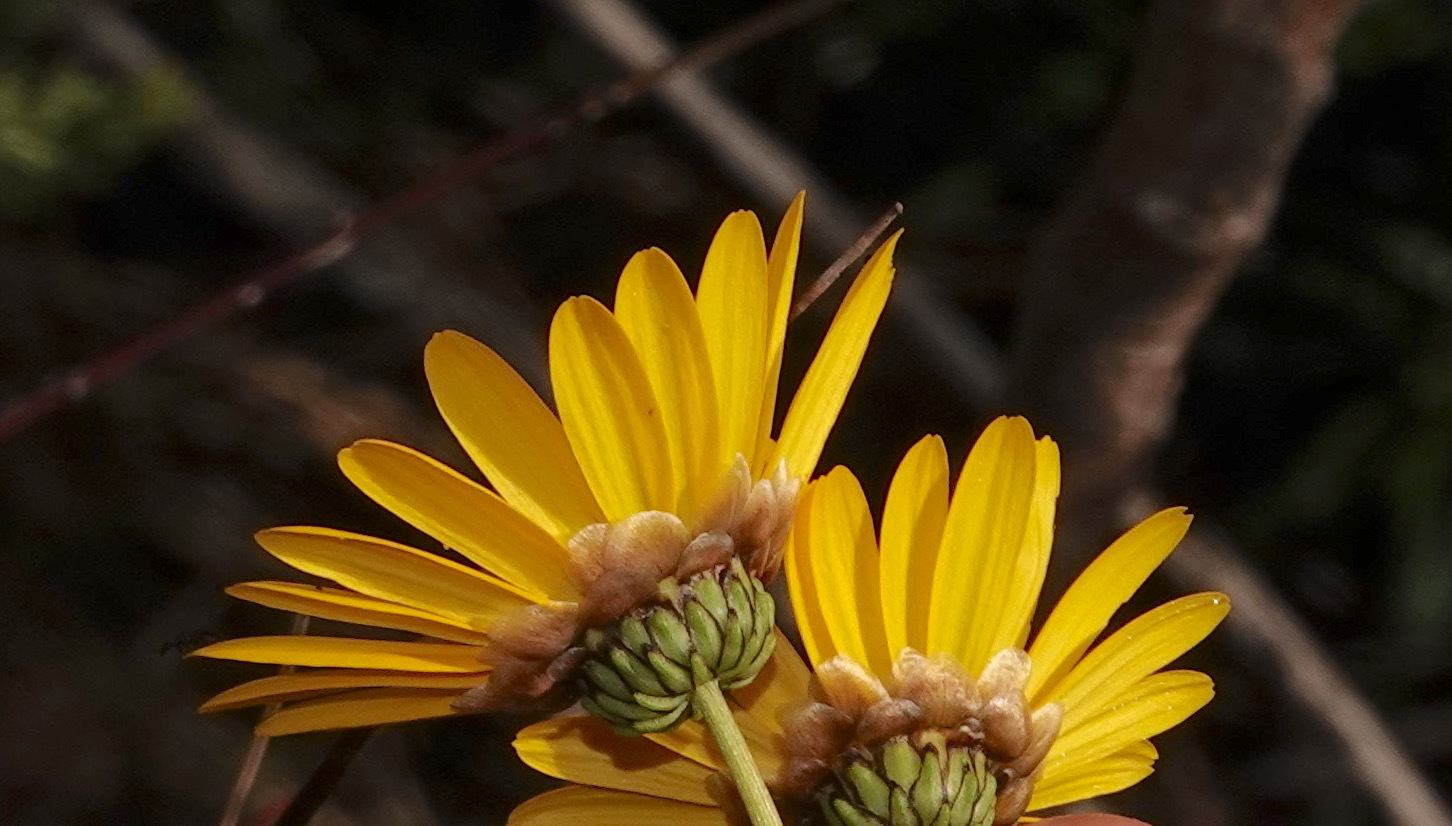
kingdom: Plantae
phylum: Tracheophyta
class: Magnoliopsida
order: Asterales
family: Asteraceae
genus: Ursinia
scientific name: Ursinia paleacea
